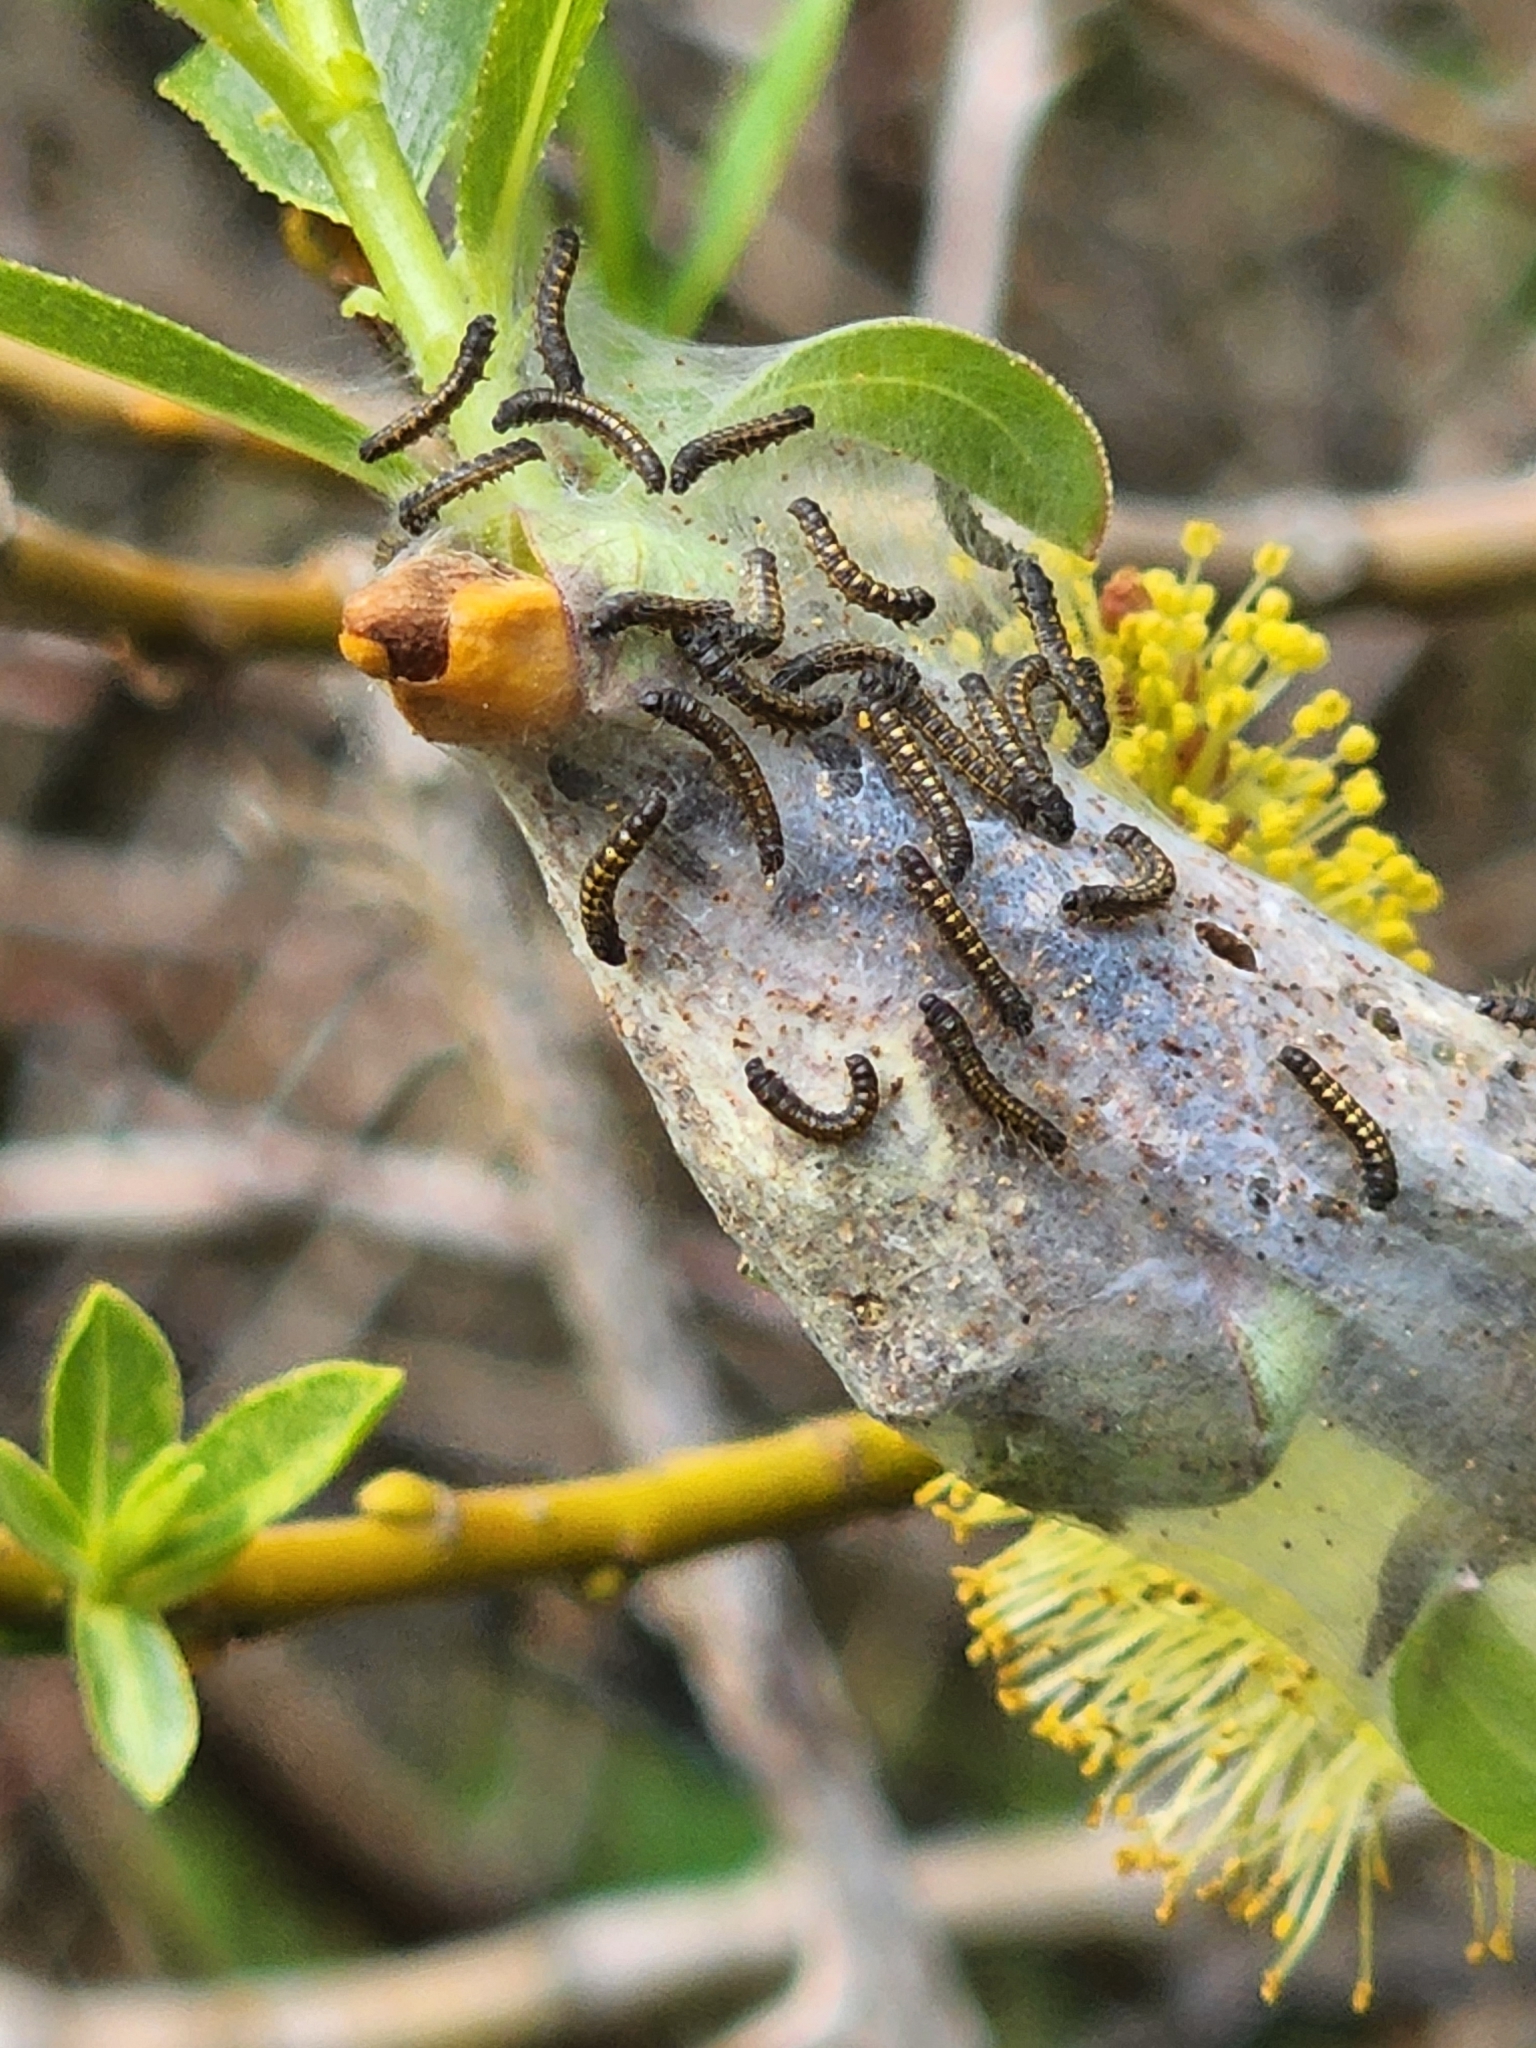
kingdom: Animalia
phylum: Arthropoda
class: Insecta
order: Lepidoptera
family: Lasiocampidae
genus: Malacosoma
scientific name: Malacosoma californica
